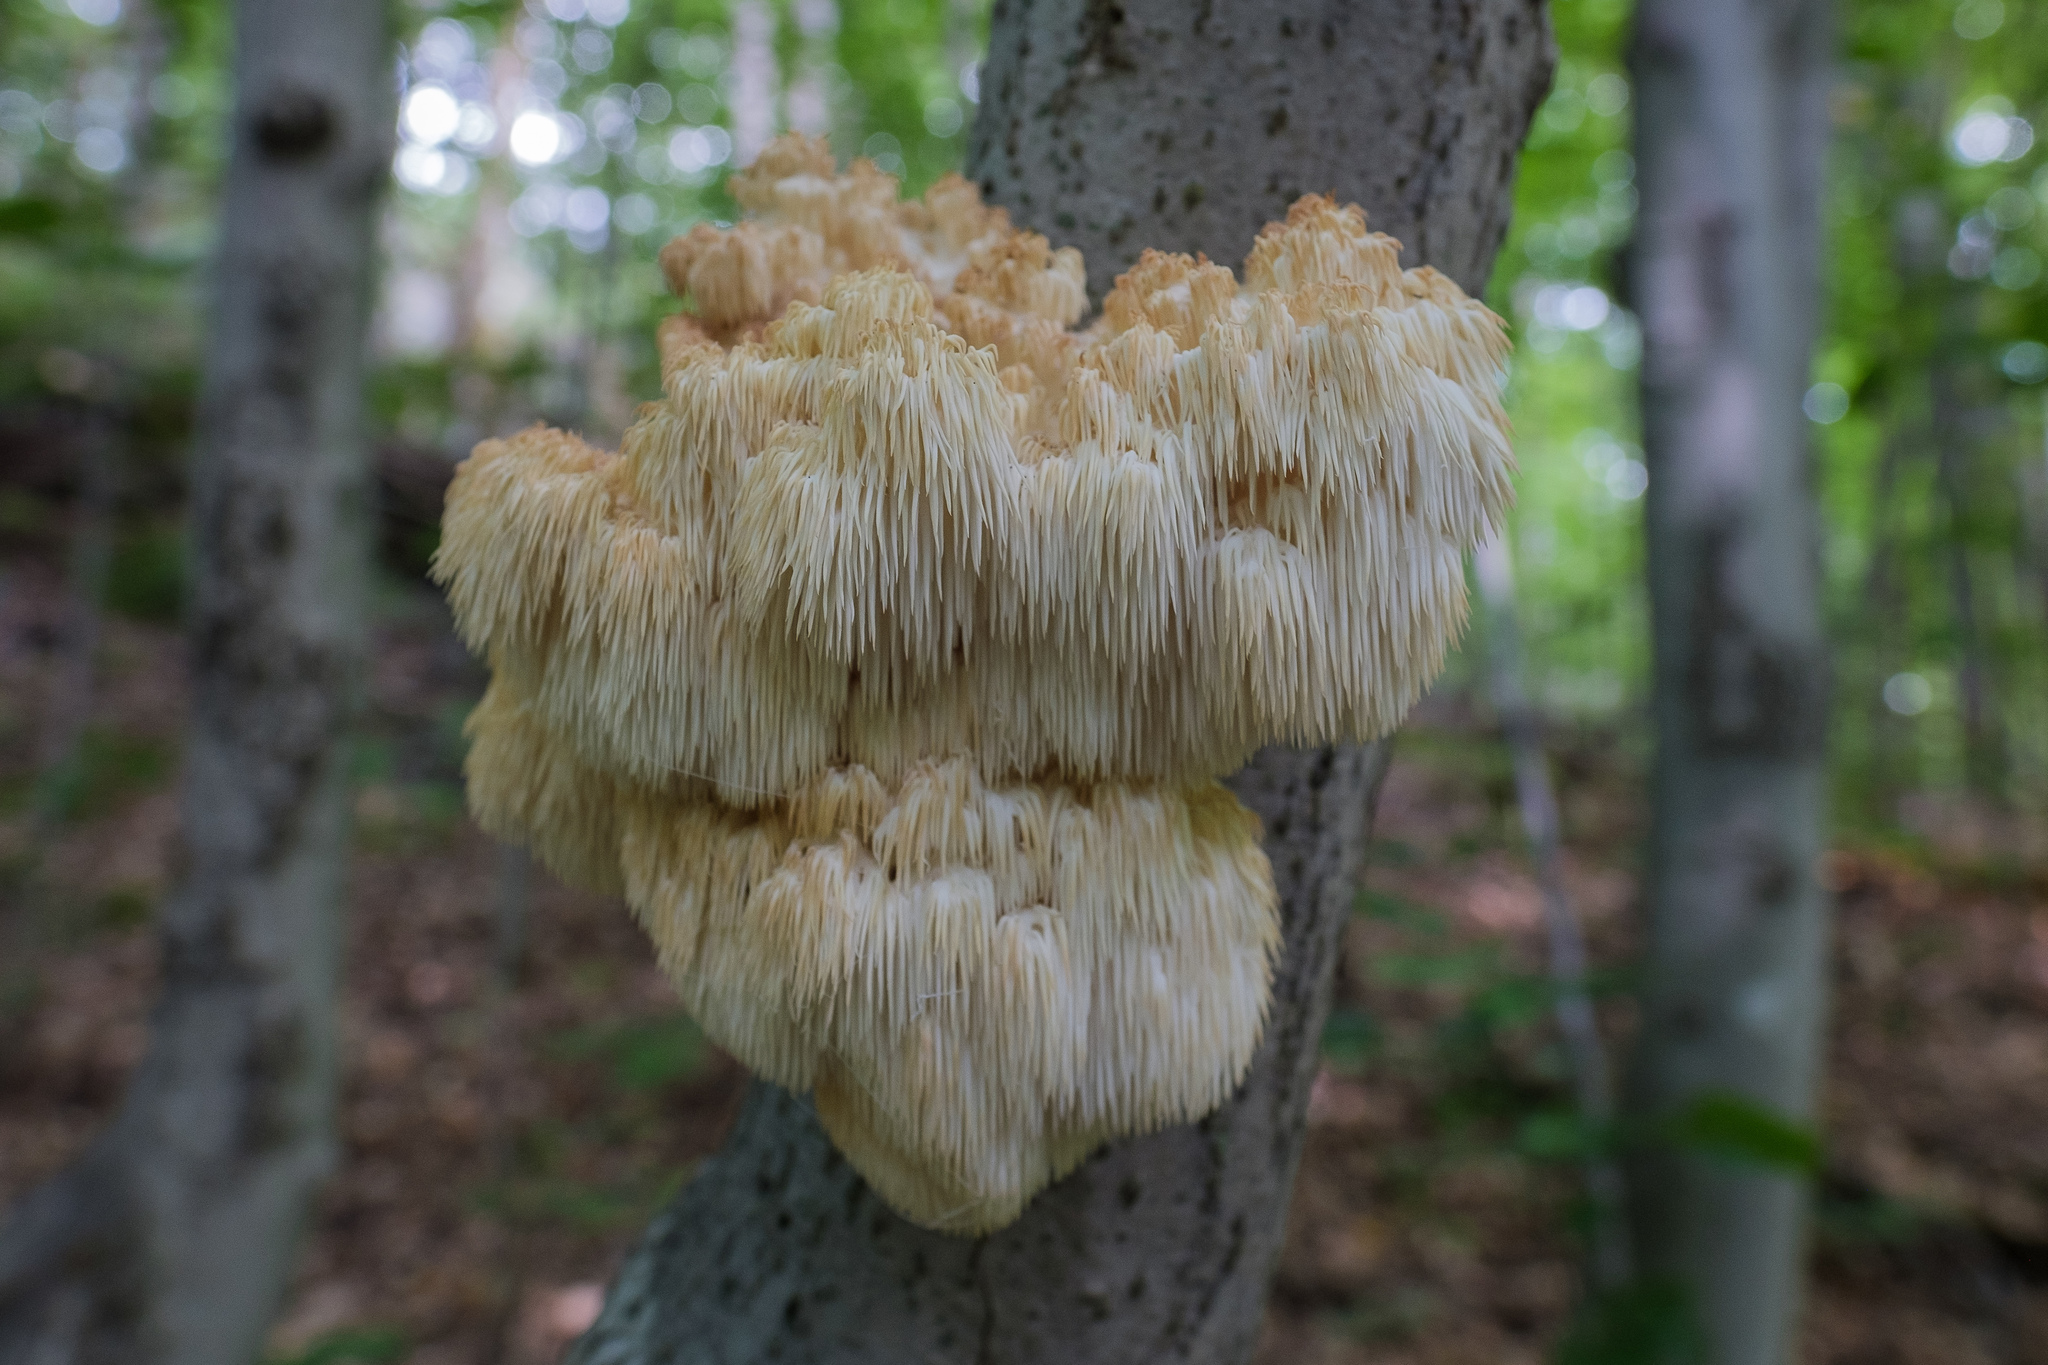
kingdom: Fungi
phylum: Basidiomycota
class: Agaricomycetes
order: Russulales
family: Hericiaceae
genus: Hericium
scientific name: Hericium americanum
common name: Bear's head tooth
